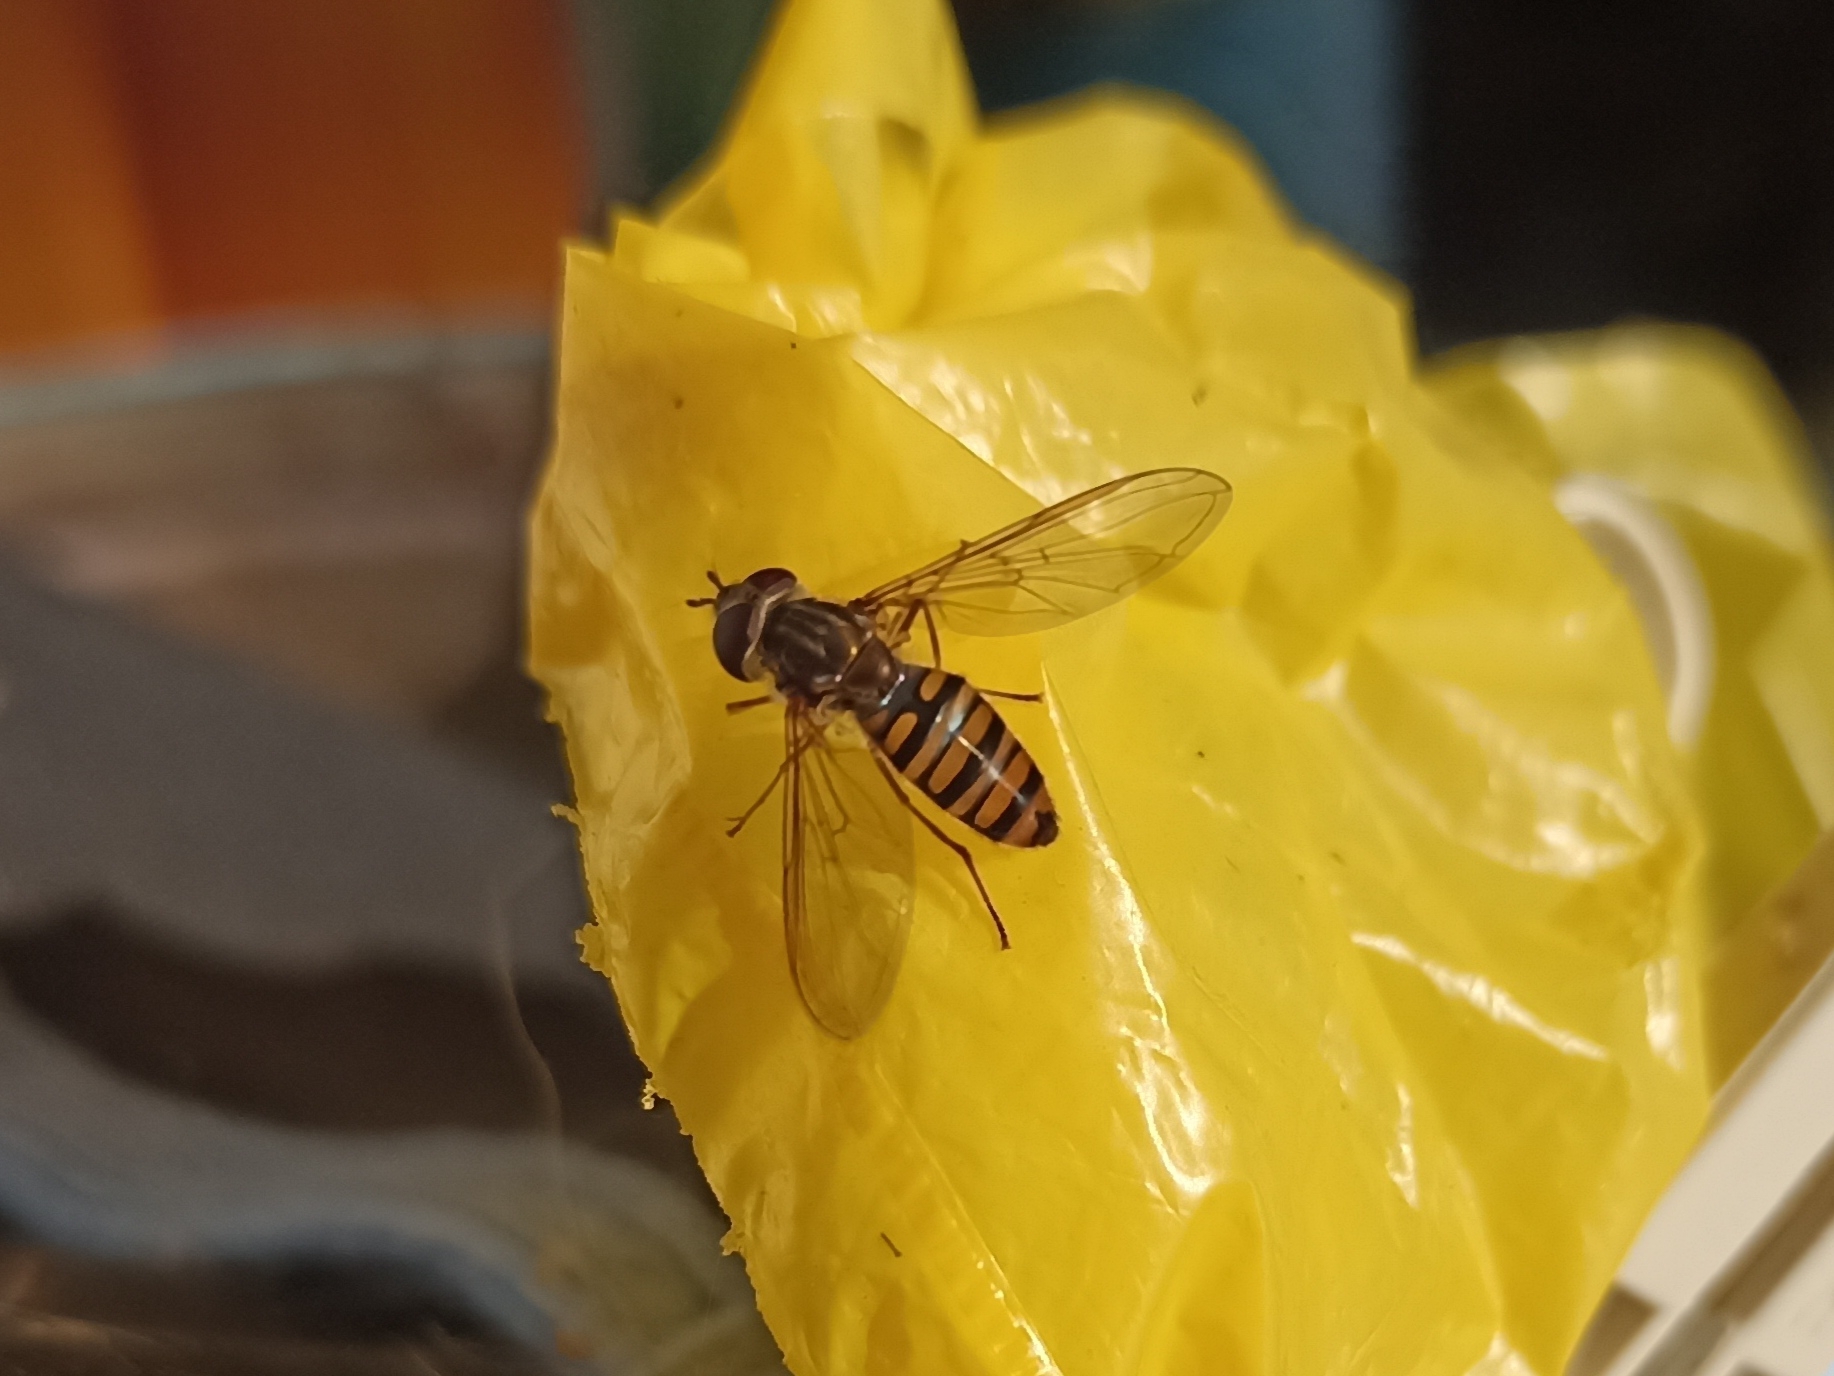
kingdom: Animalia
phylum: Arthropoda
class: Insecta
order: Diptera
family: Syrphidae
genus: Episyrphus
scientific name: Episyrphus balteatus
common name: Marmalade hoverfly
